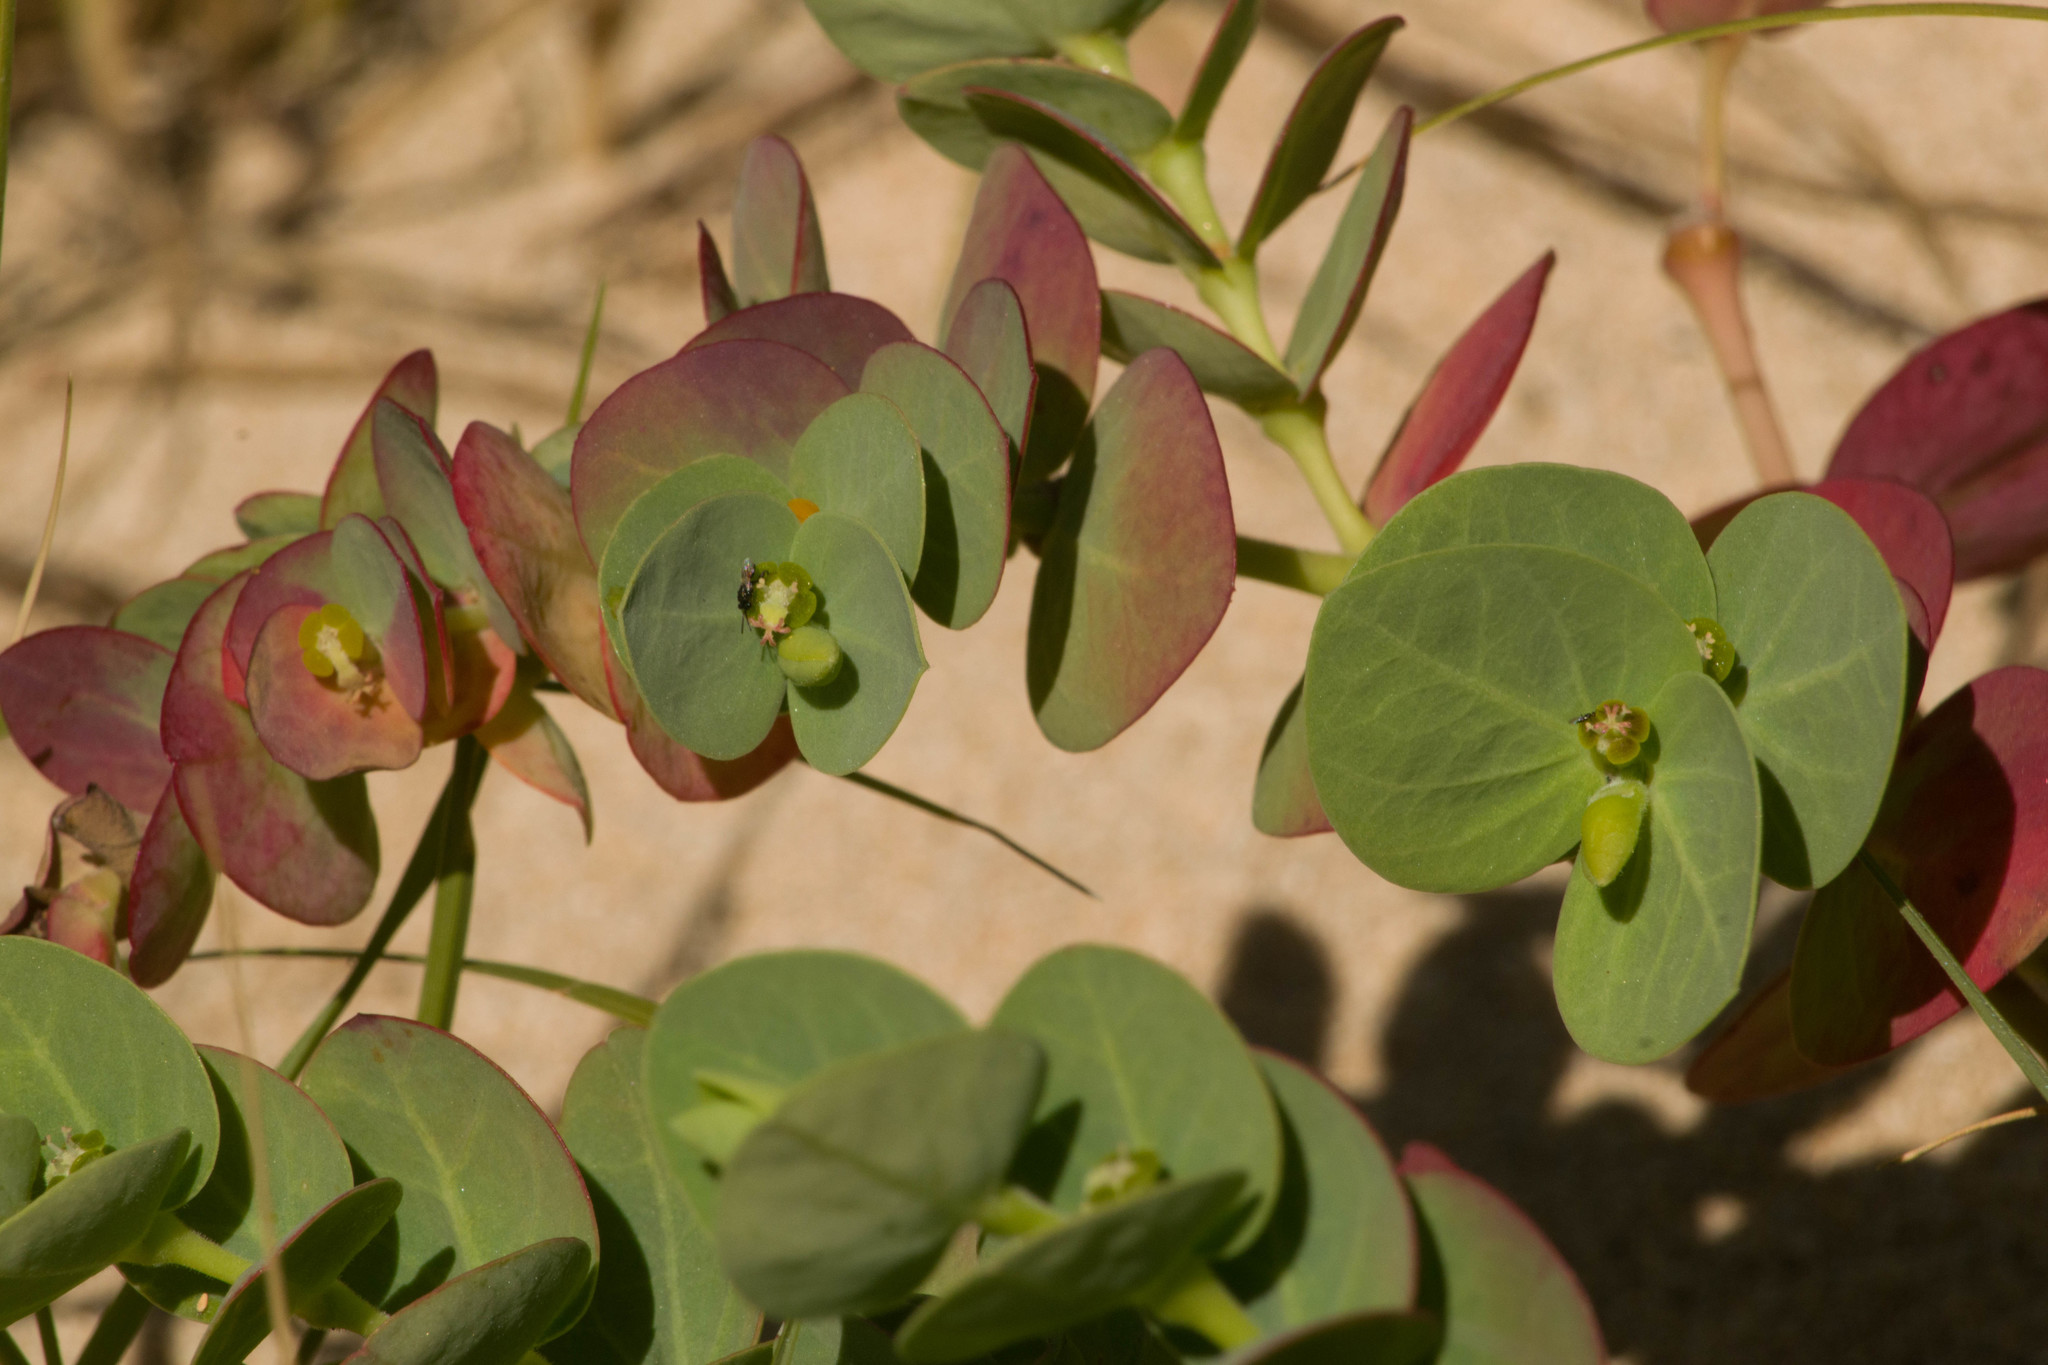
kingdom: Plantae
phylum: Tracheophyta
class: Magnoliopsida
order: Malpighiales
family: Euphorbiaceae
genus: Euphorbia
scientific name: Euphorbia degeneri
